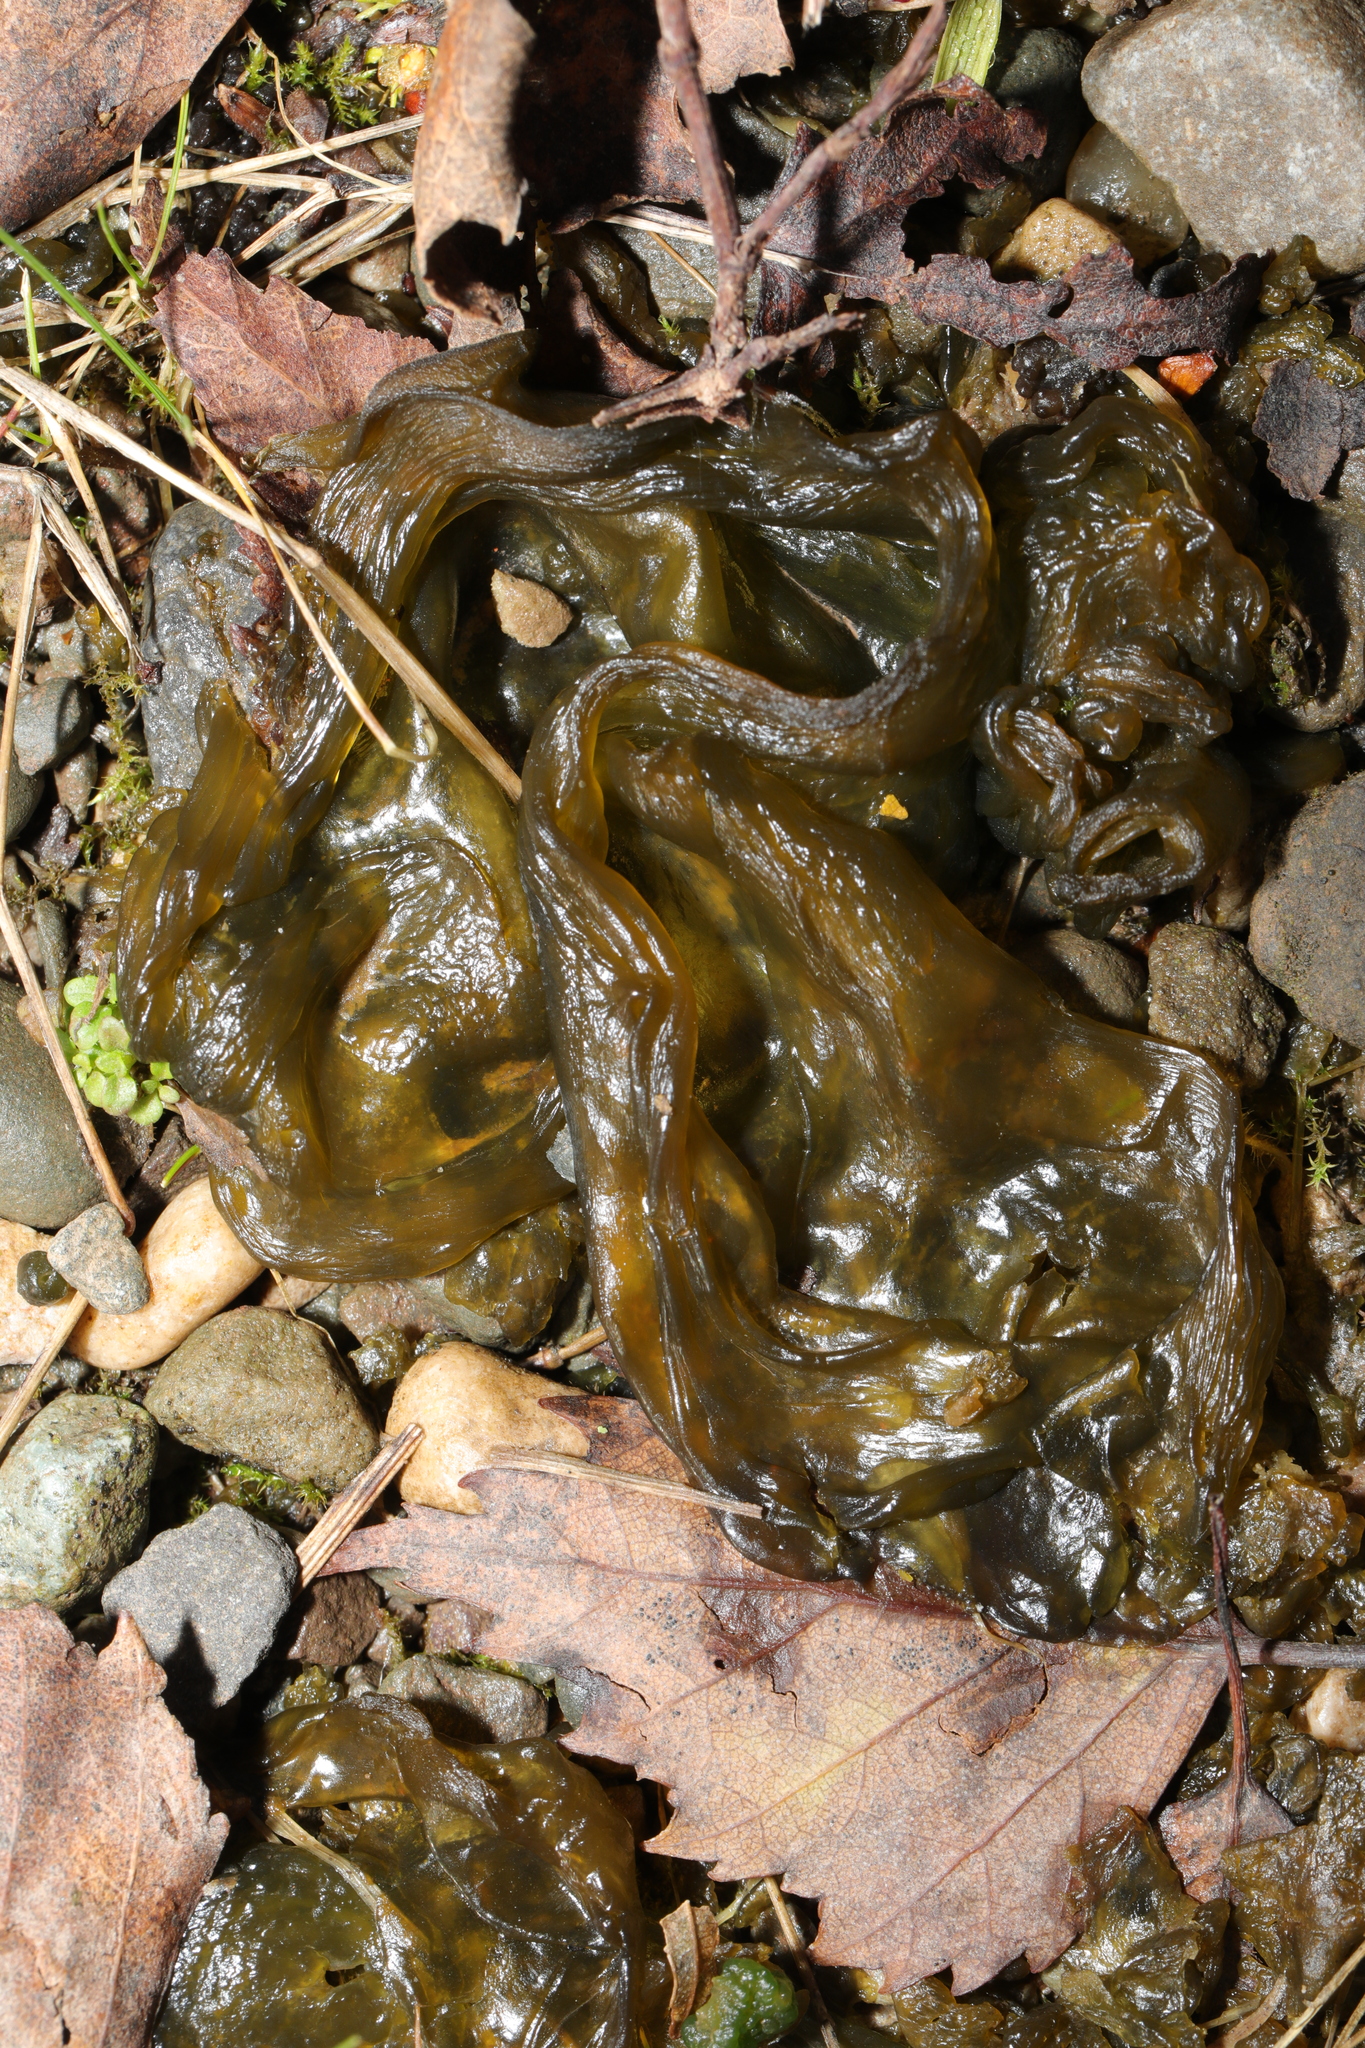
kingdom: Bacteria
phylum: Cyanobacteria
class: Cyanobacteriia
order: Cyanobacteriales
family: Nostocaceae
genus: Nostoc
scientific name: Nostoc commune
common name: Star jelly
